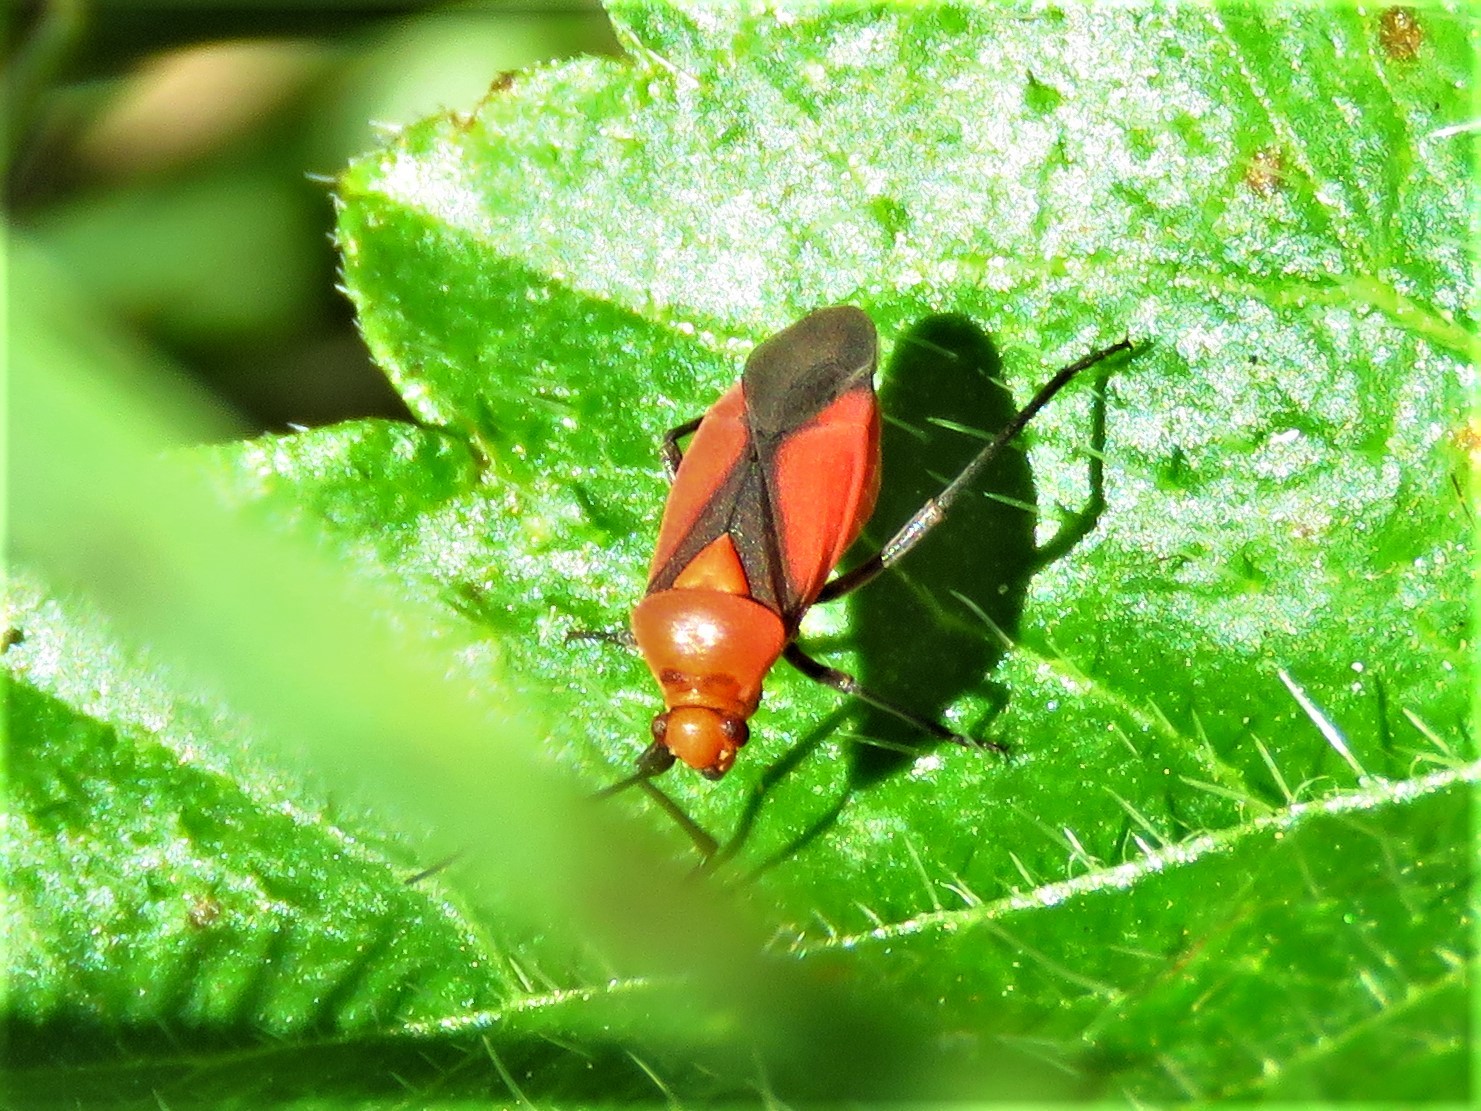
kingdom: Animalia
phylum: Arthropoda
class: Insecta
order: Hemiptera
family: Miridae
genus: Oncerometopus
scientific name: Oncerometopus nigriclavus
